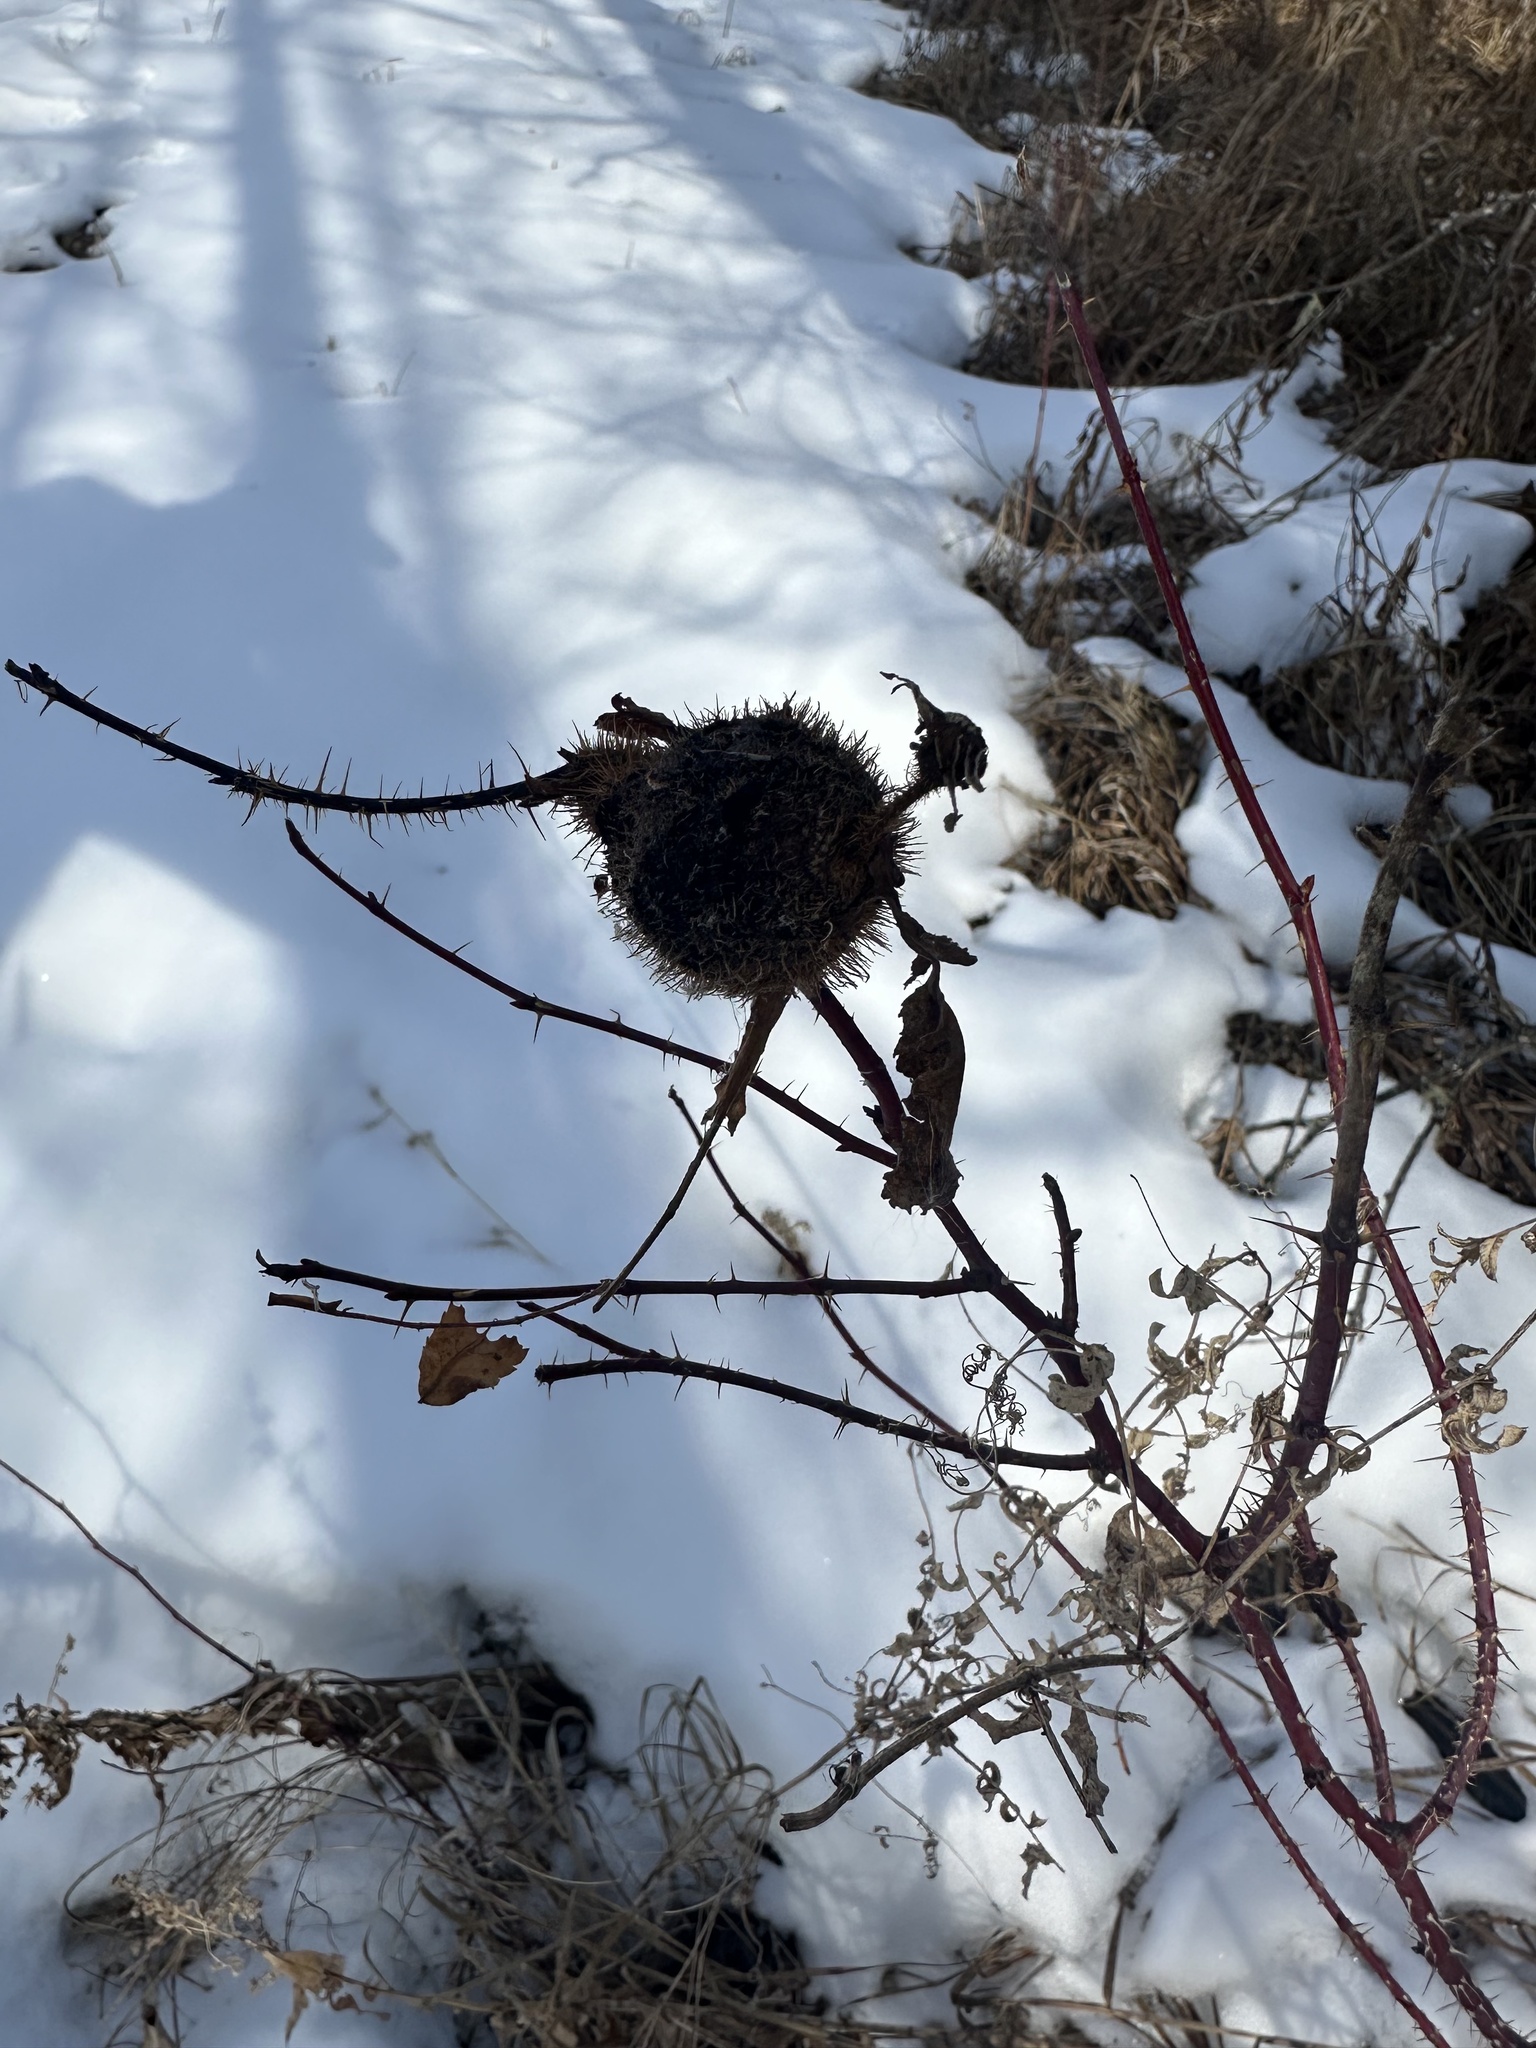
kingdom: Animalia
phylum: Arthropoda
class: Insecta
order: Hymenoptera
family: Cynipidae
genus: Diplolepis
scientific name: Diplolepis spinosa
